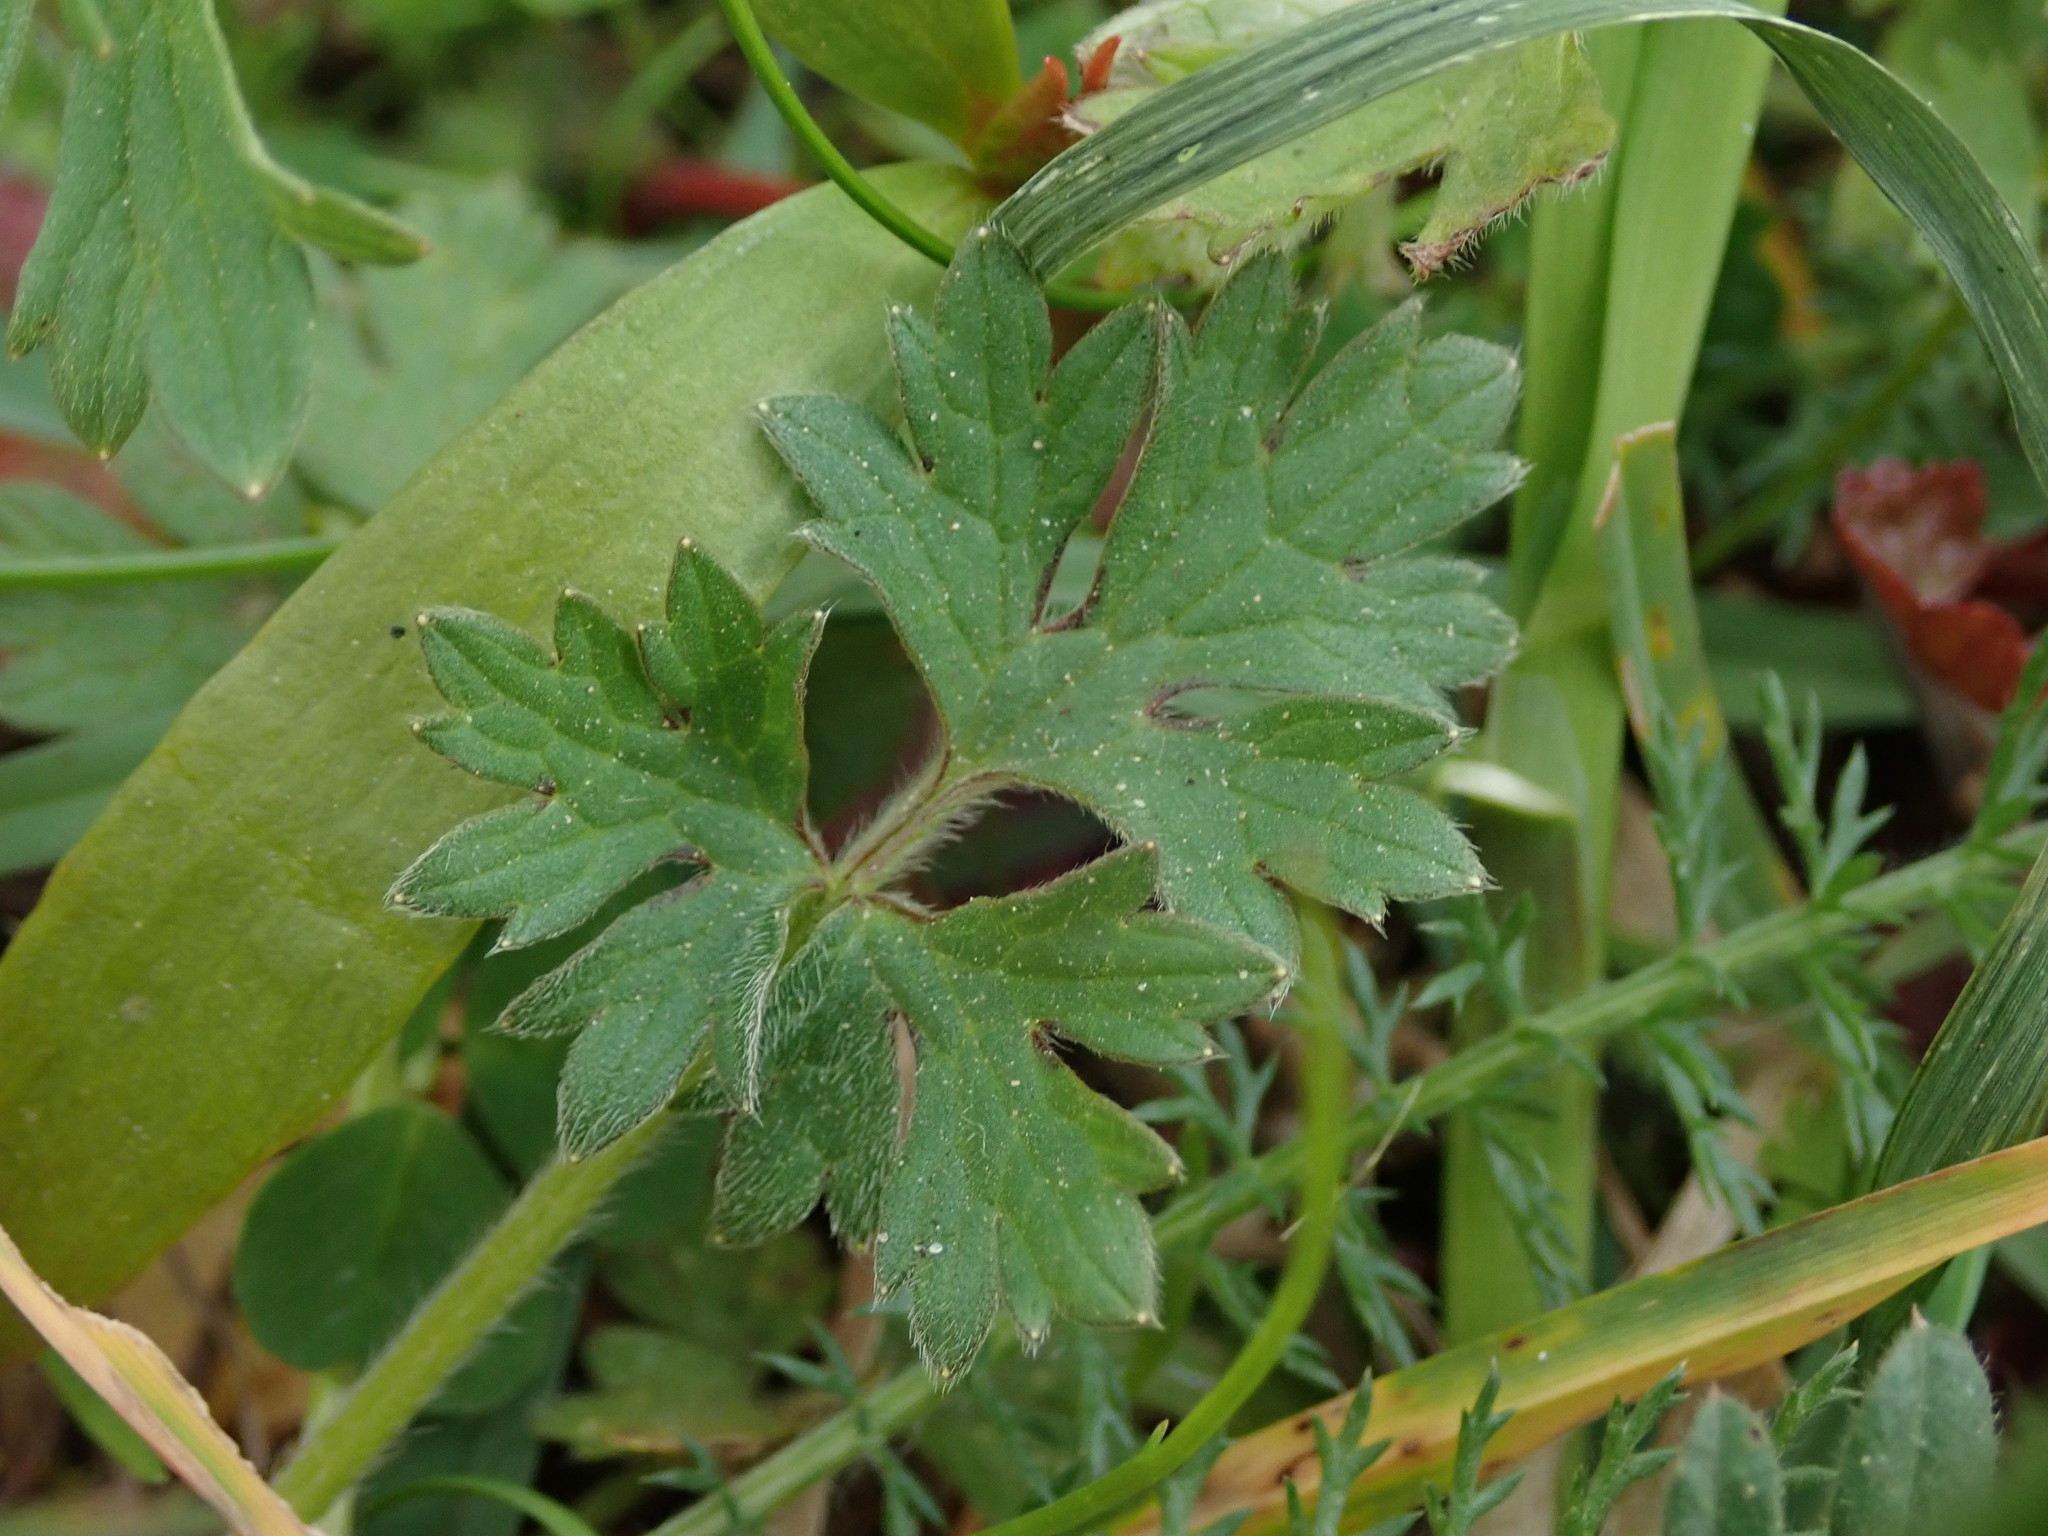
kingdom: Plantae
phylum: Tracheophyta
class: Magnoliopsida
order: Ranunculales
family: Ranunculaceae
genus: Ranunculus
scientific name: Ranunculus bulbosus
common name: Bulbous buttercup
